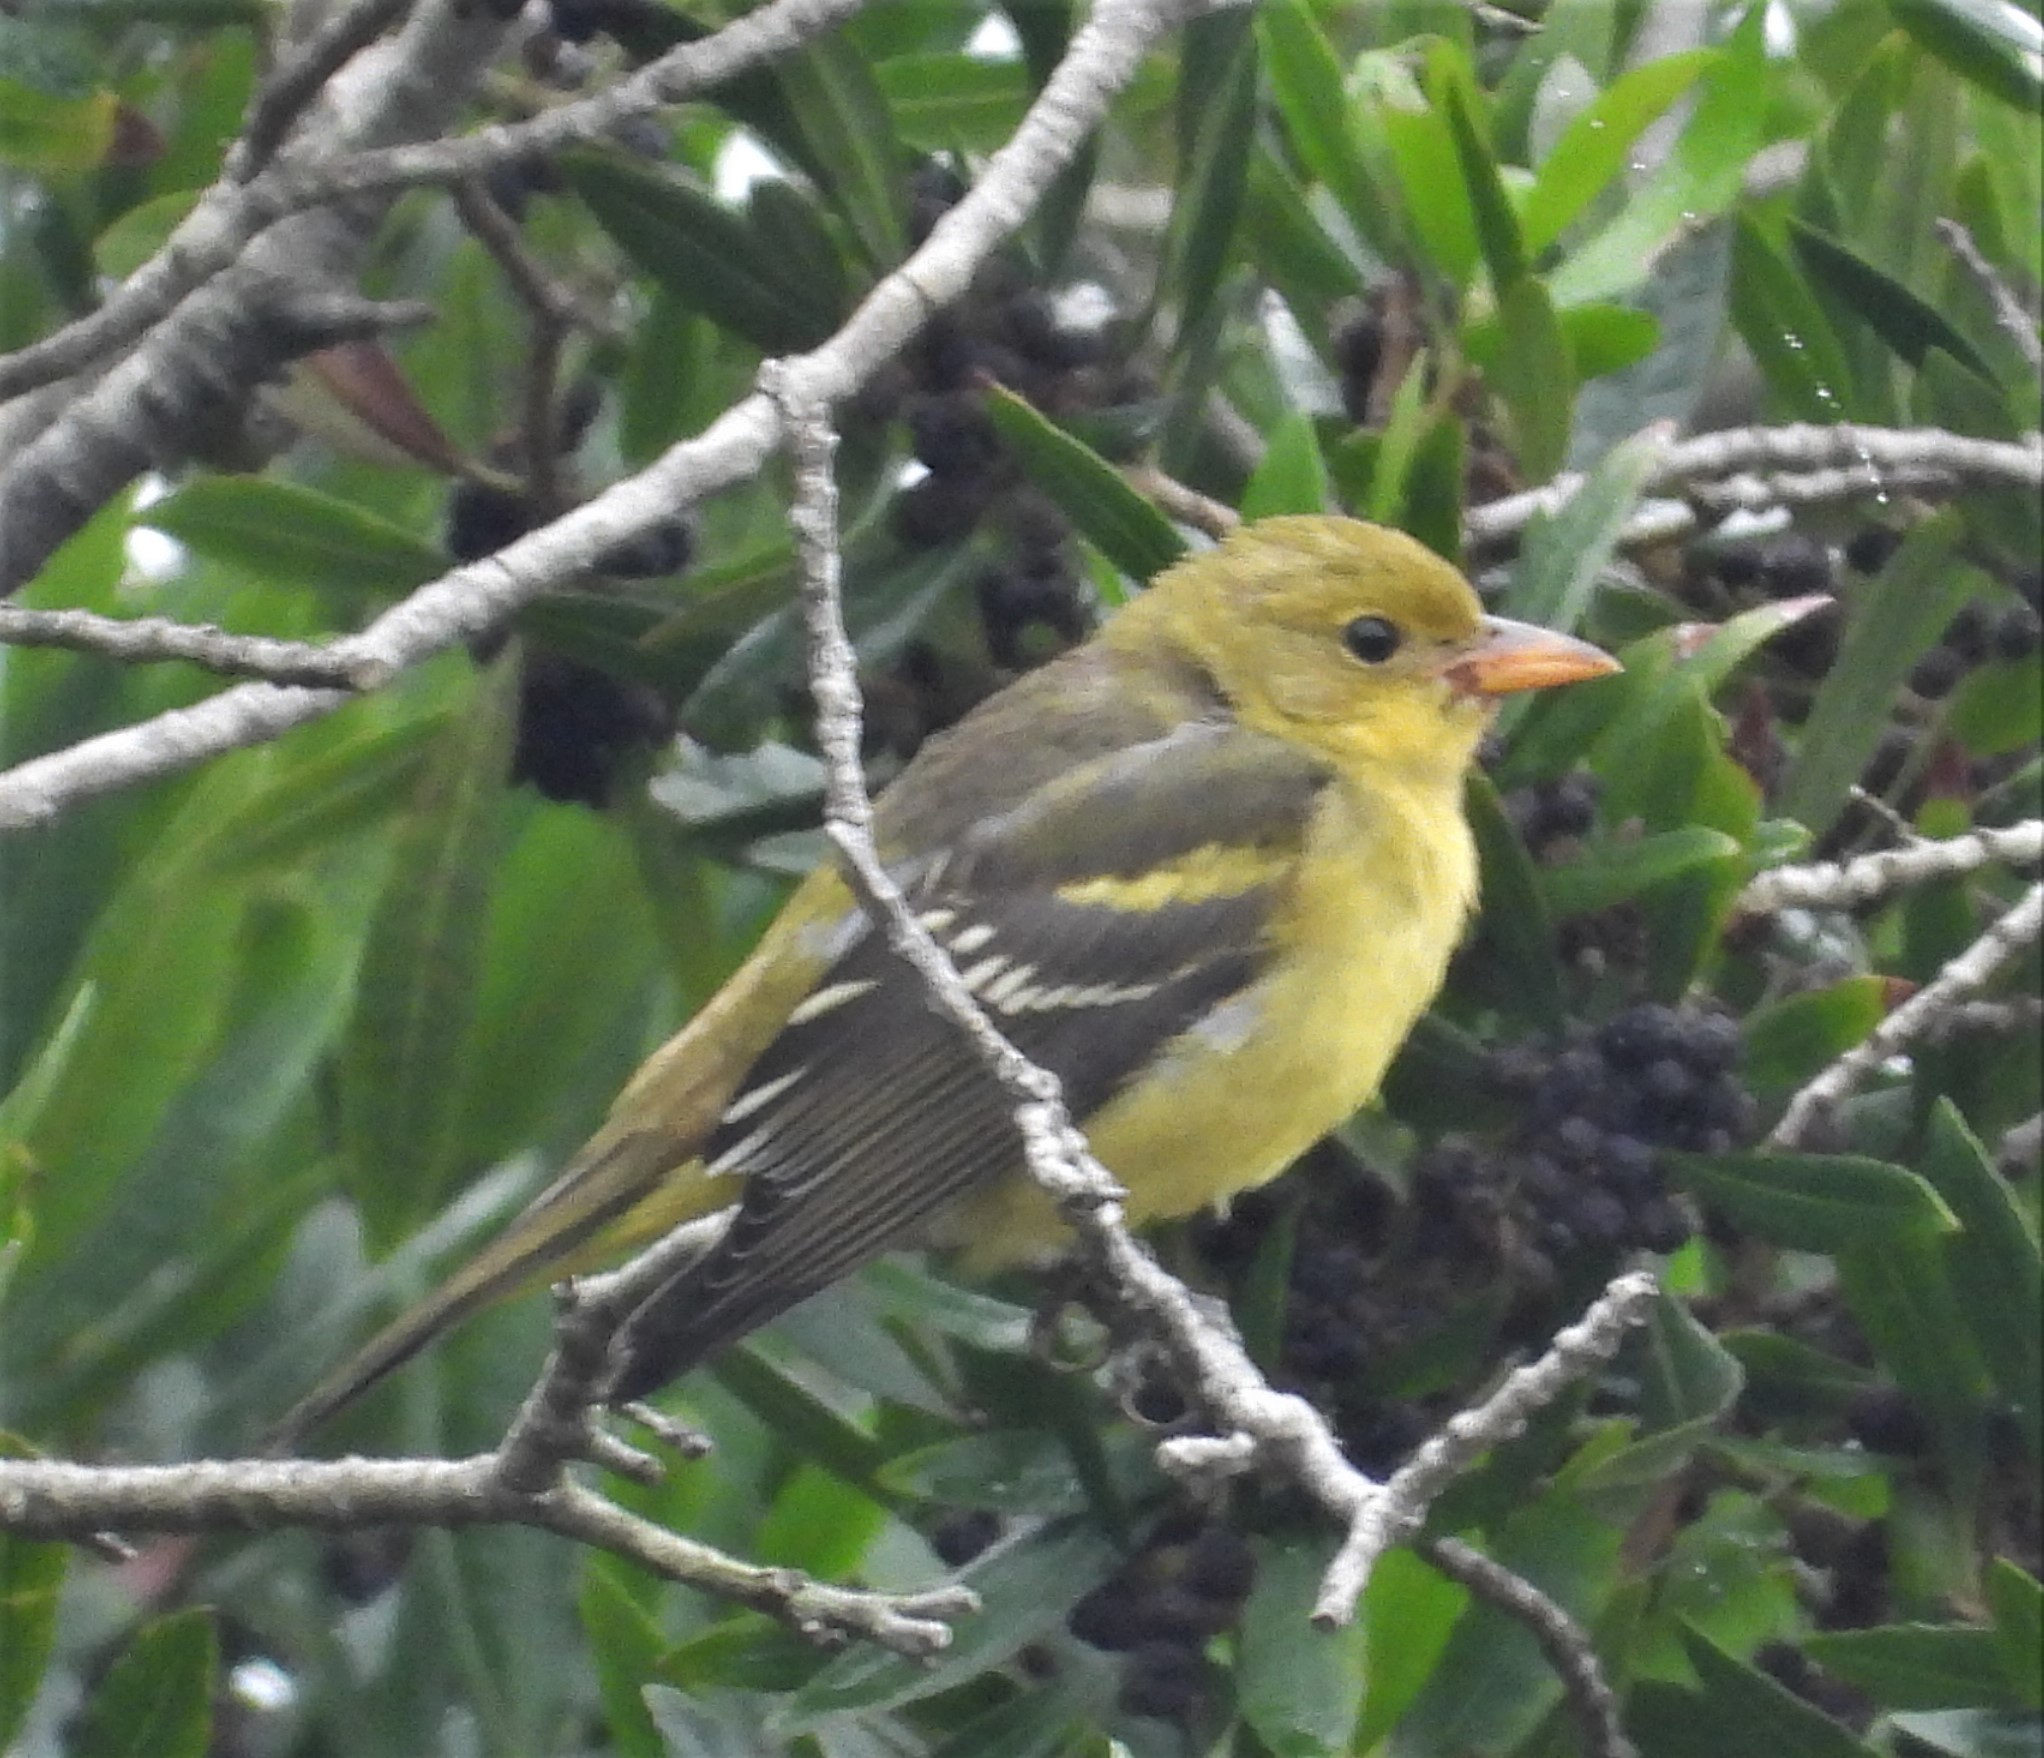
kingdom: Animalia
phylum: Chordata
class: Aves
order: Passeriformes
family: Cardinalidae
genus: Piranga
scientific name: Piranga ludoviciana
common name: Western tanager
